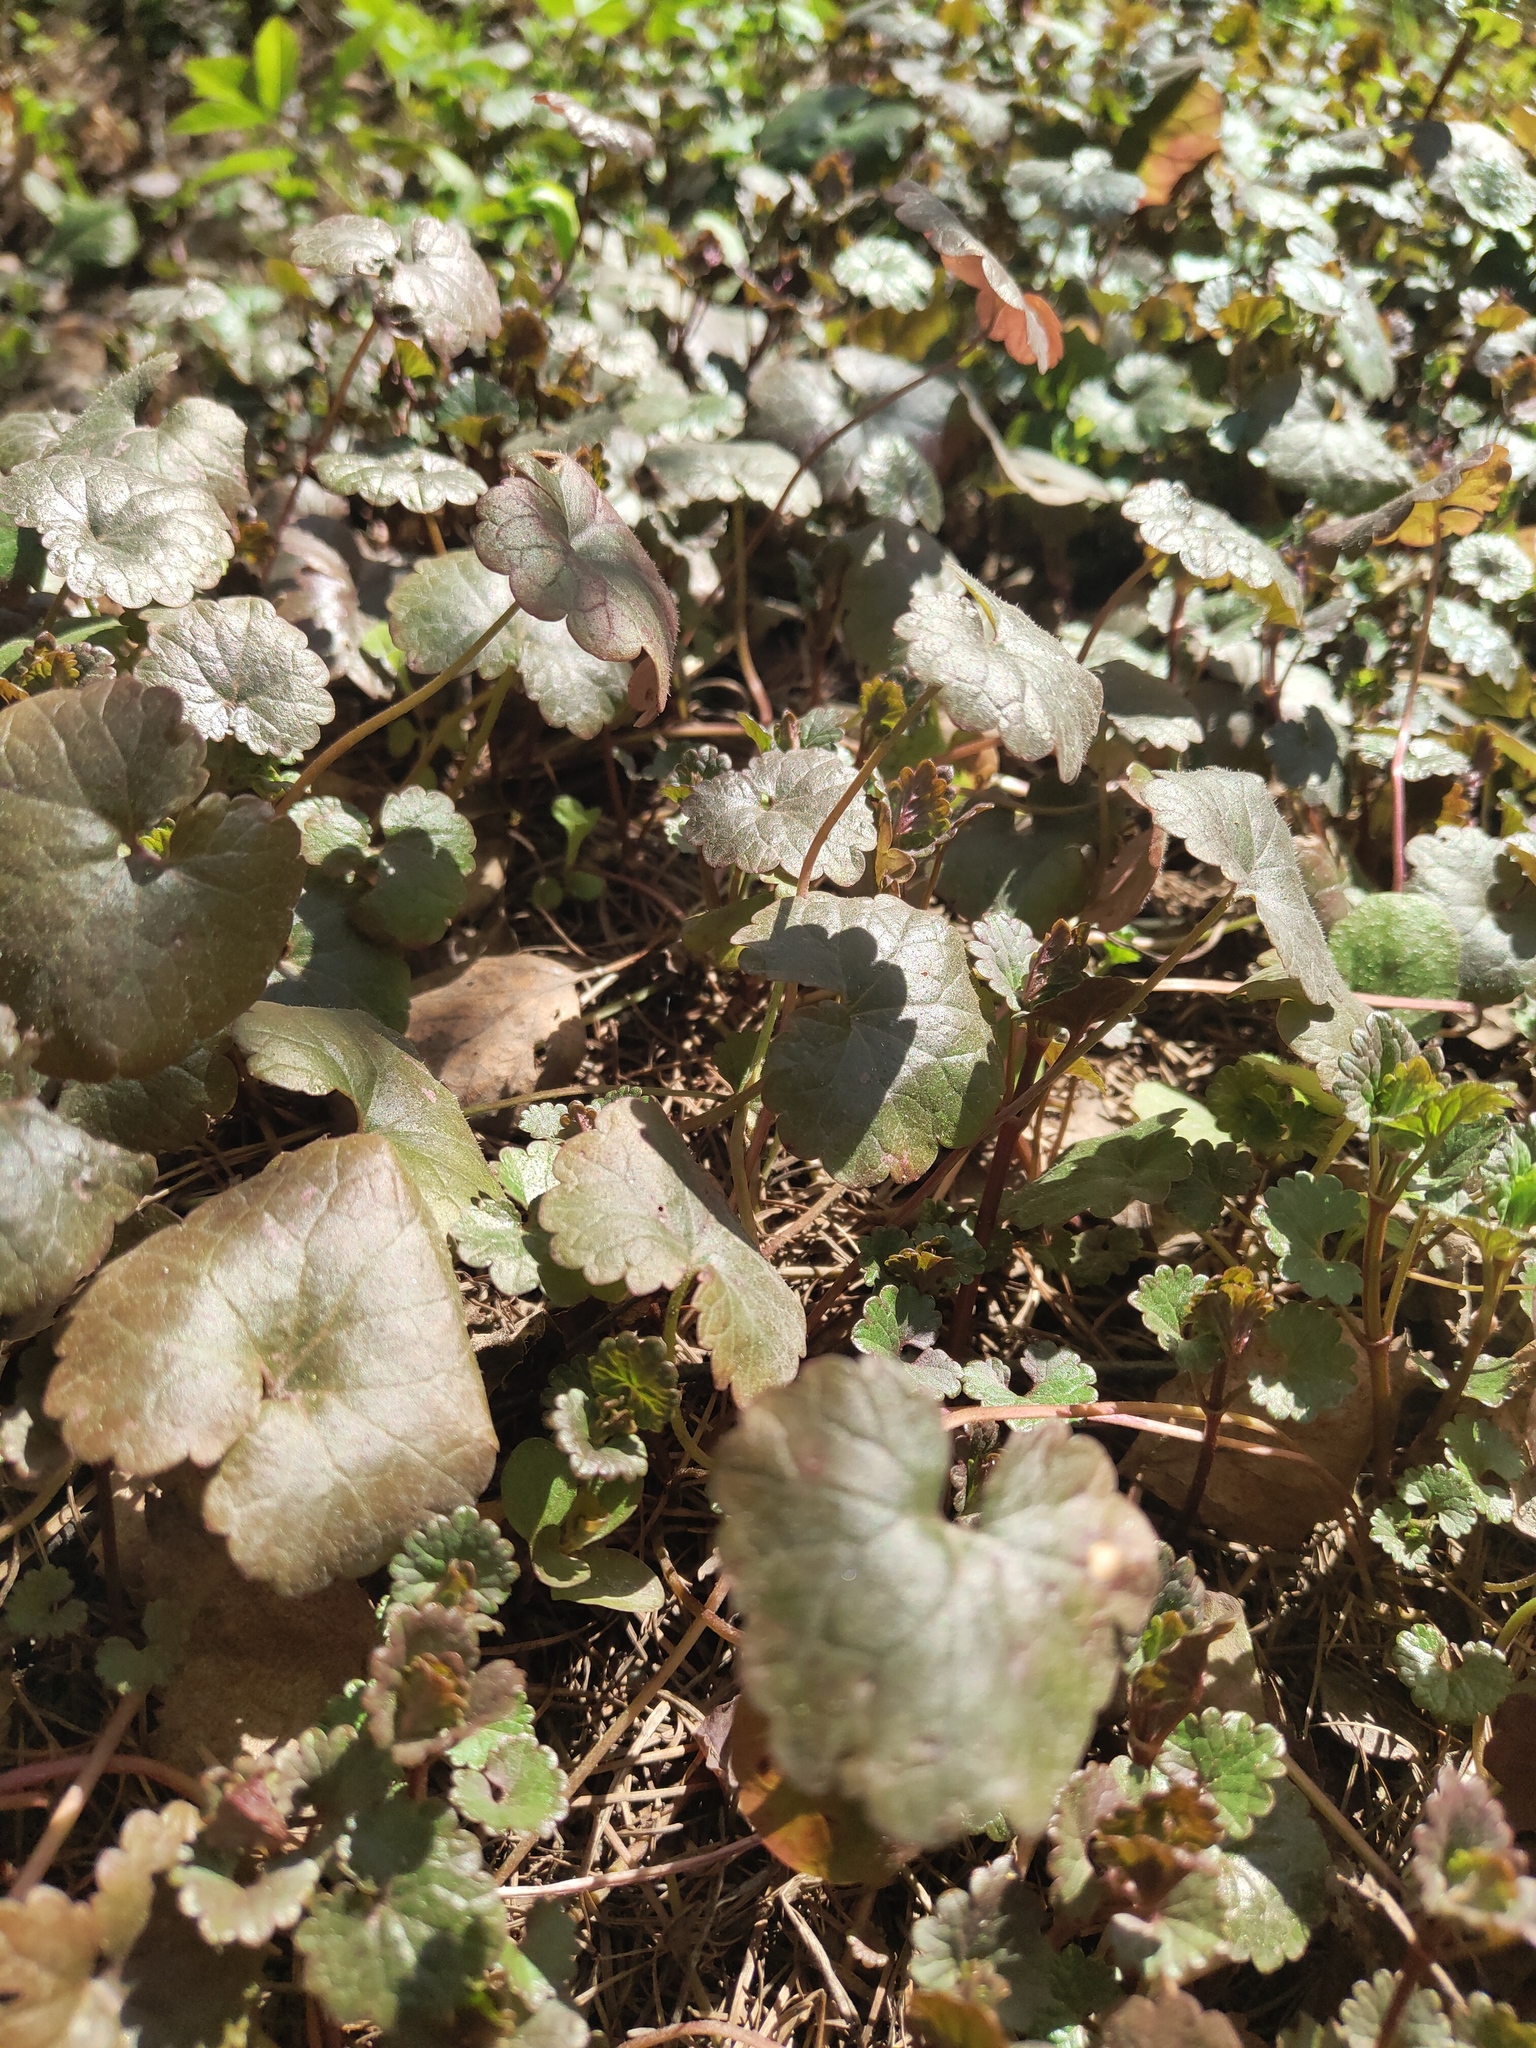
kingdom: Plantae
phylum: Tracheophyta
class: Magnoliopsida
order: Lamiales
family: Lamiaceae
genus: Glechoma
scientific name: Glechoma hederacea
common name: Ground ivy
